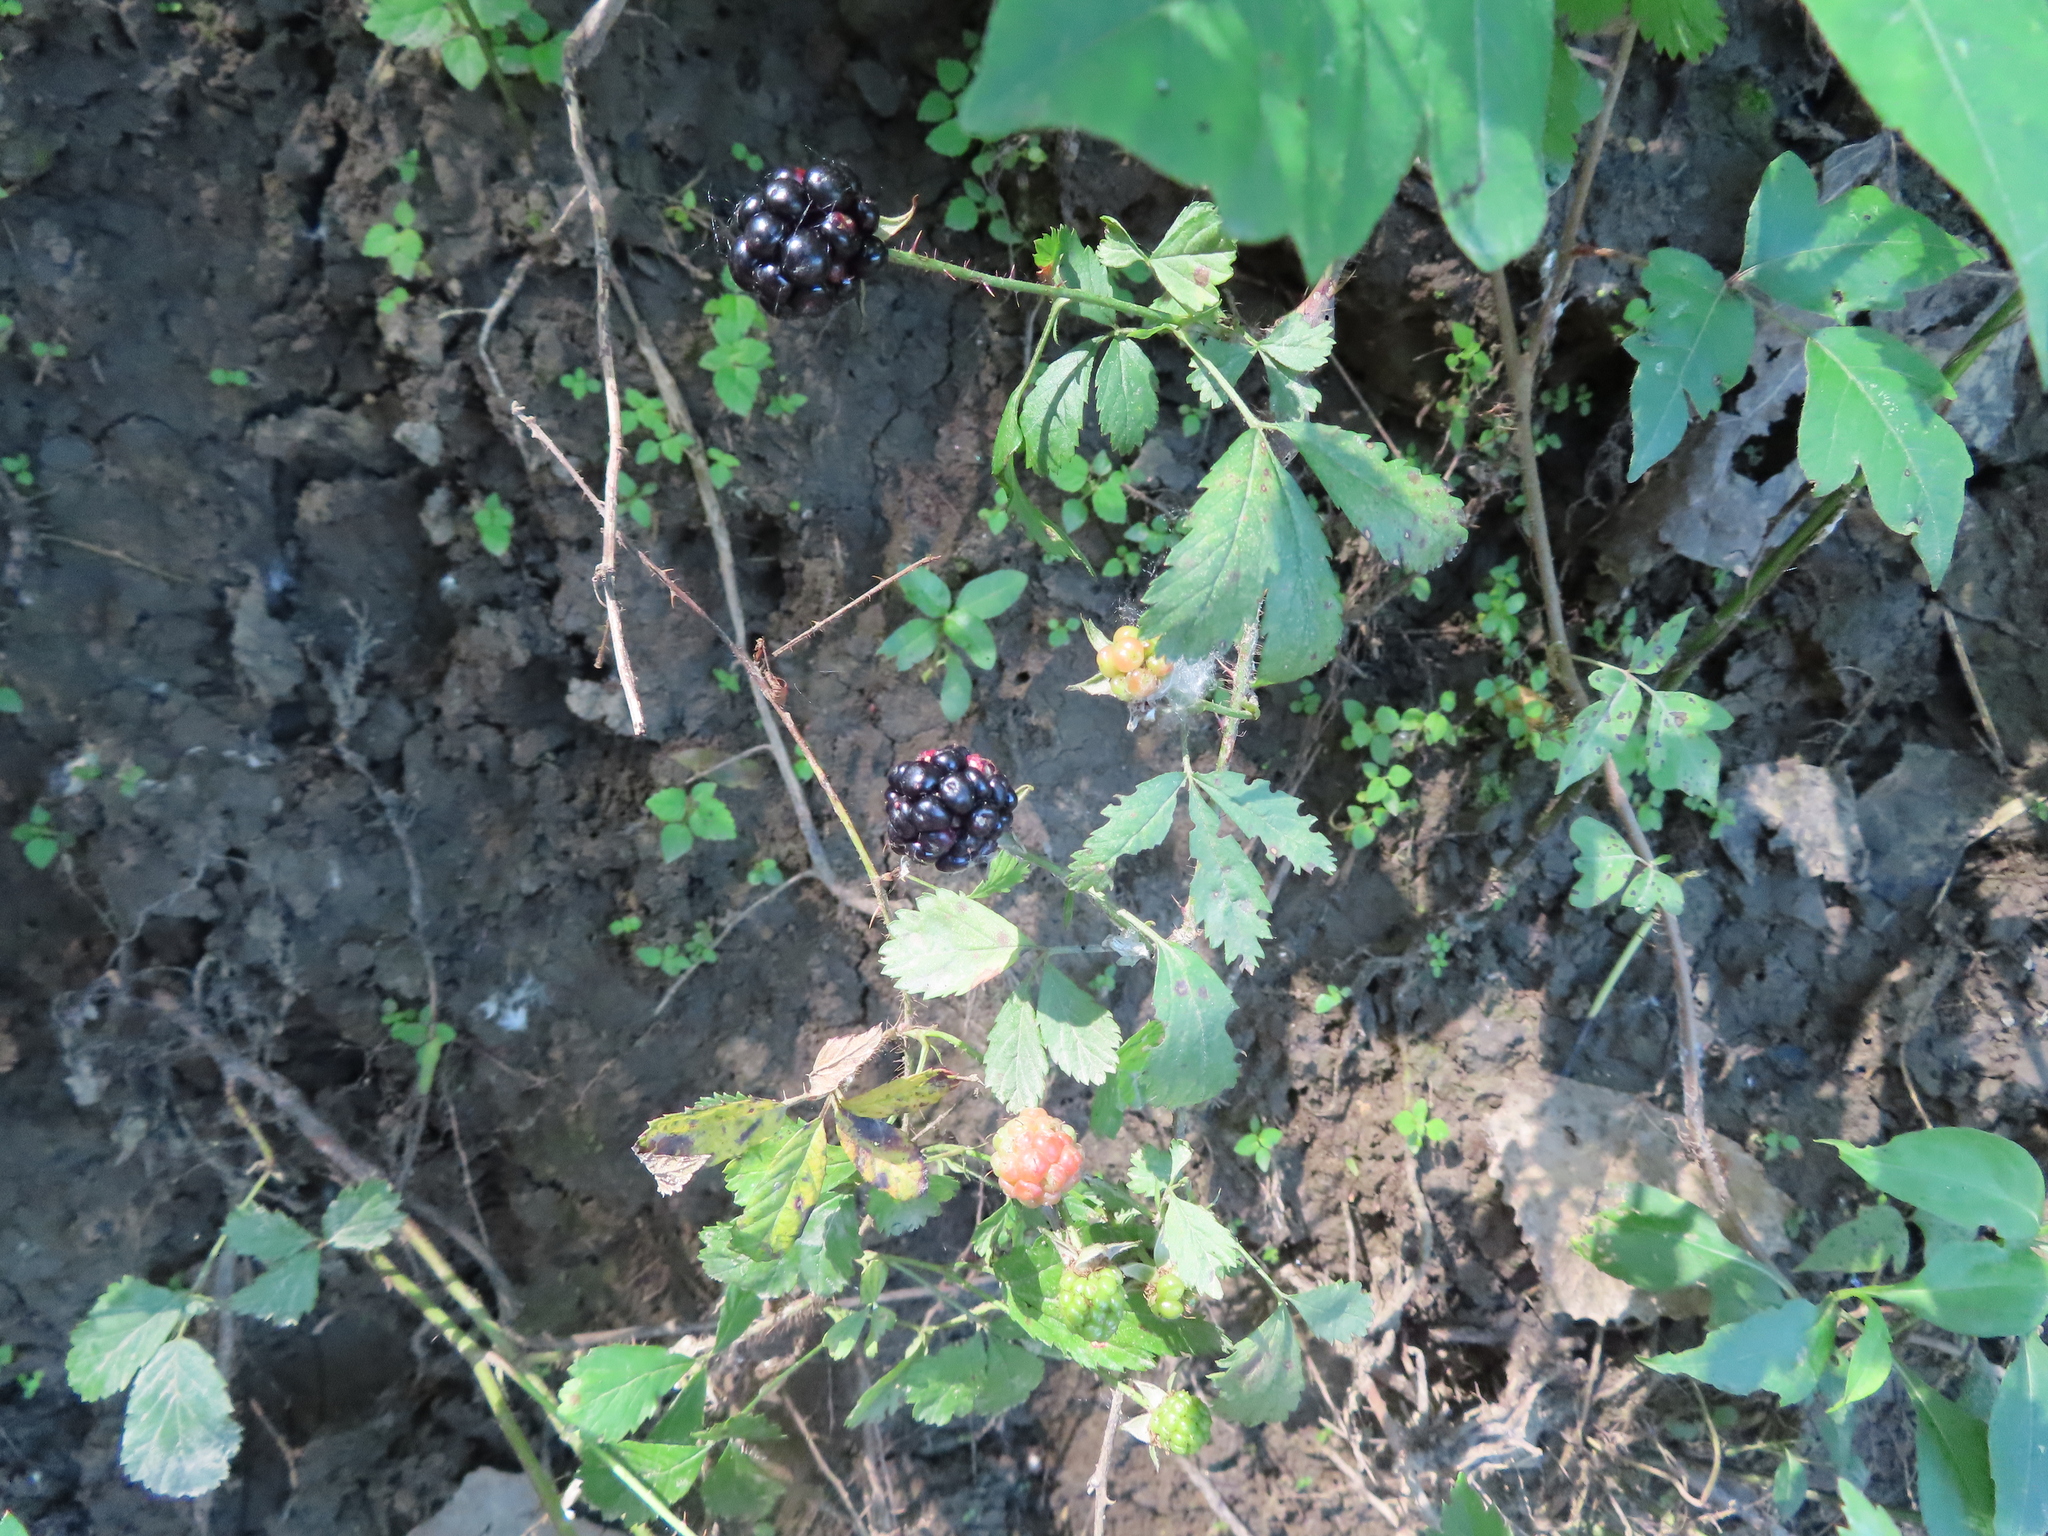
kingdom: Plantae
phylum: Tracheophyta
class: Magnoliopsida
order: Rosales
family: Rosaceae
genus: Rubus
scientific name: Rubus trivialis
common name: Southern dewberry
